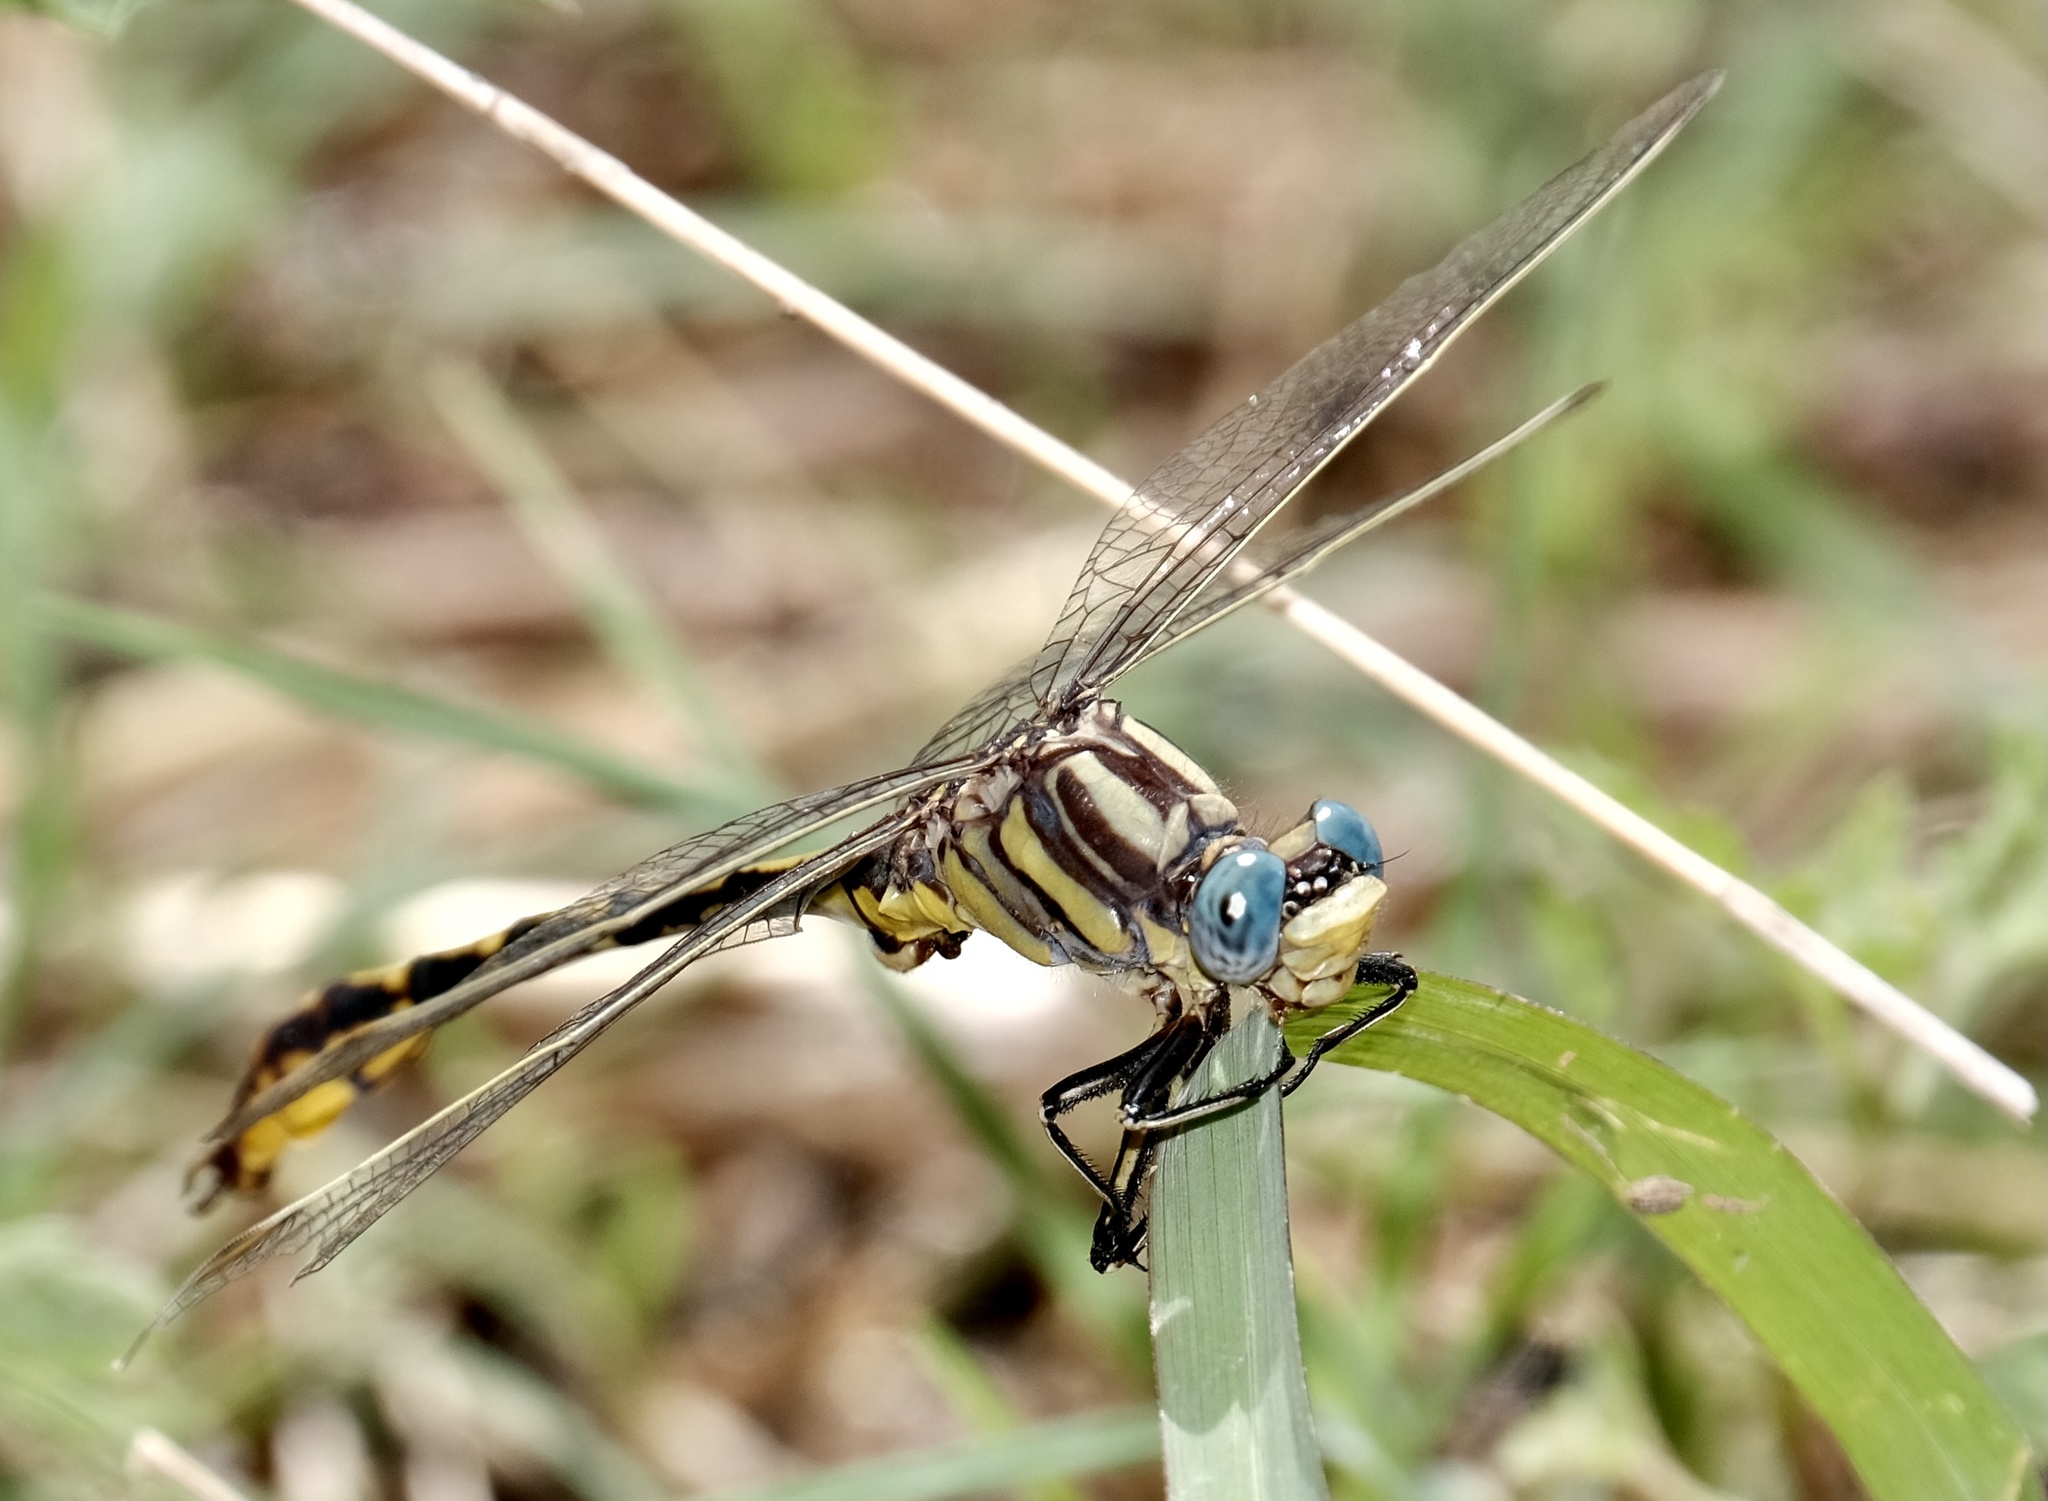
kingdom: Animalia
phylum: Arthropoda
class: Insecta
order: Odonata
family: Gomphidae
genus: Phanogomphus
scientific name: Phanogomphus militaris
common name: Sulphur-tipped clubtail
